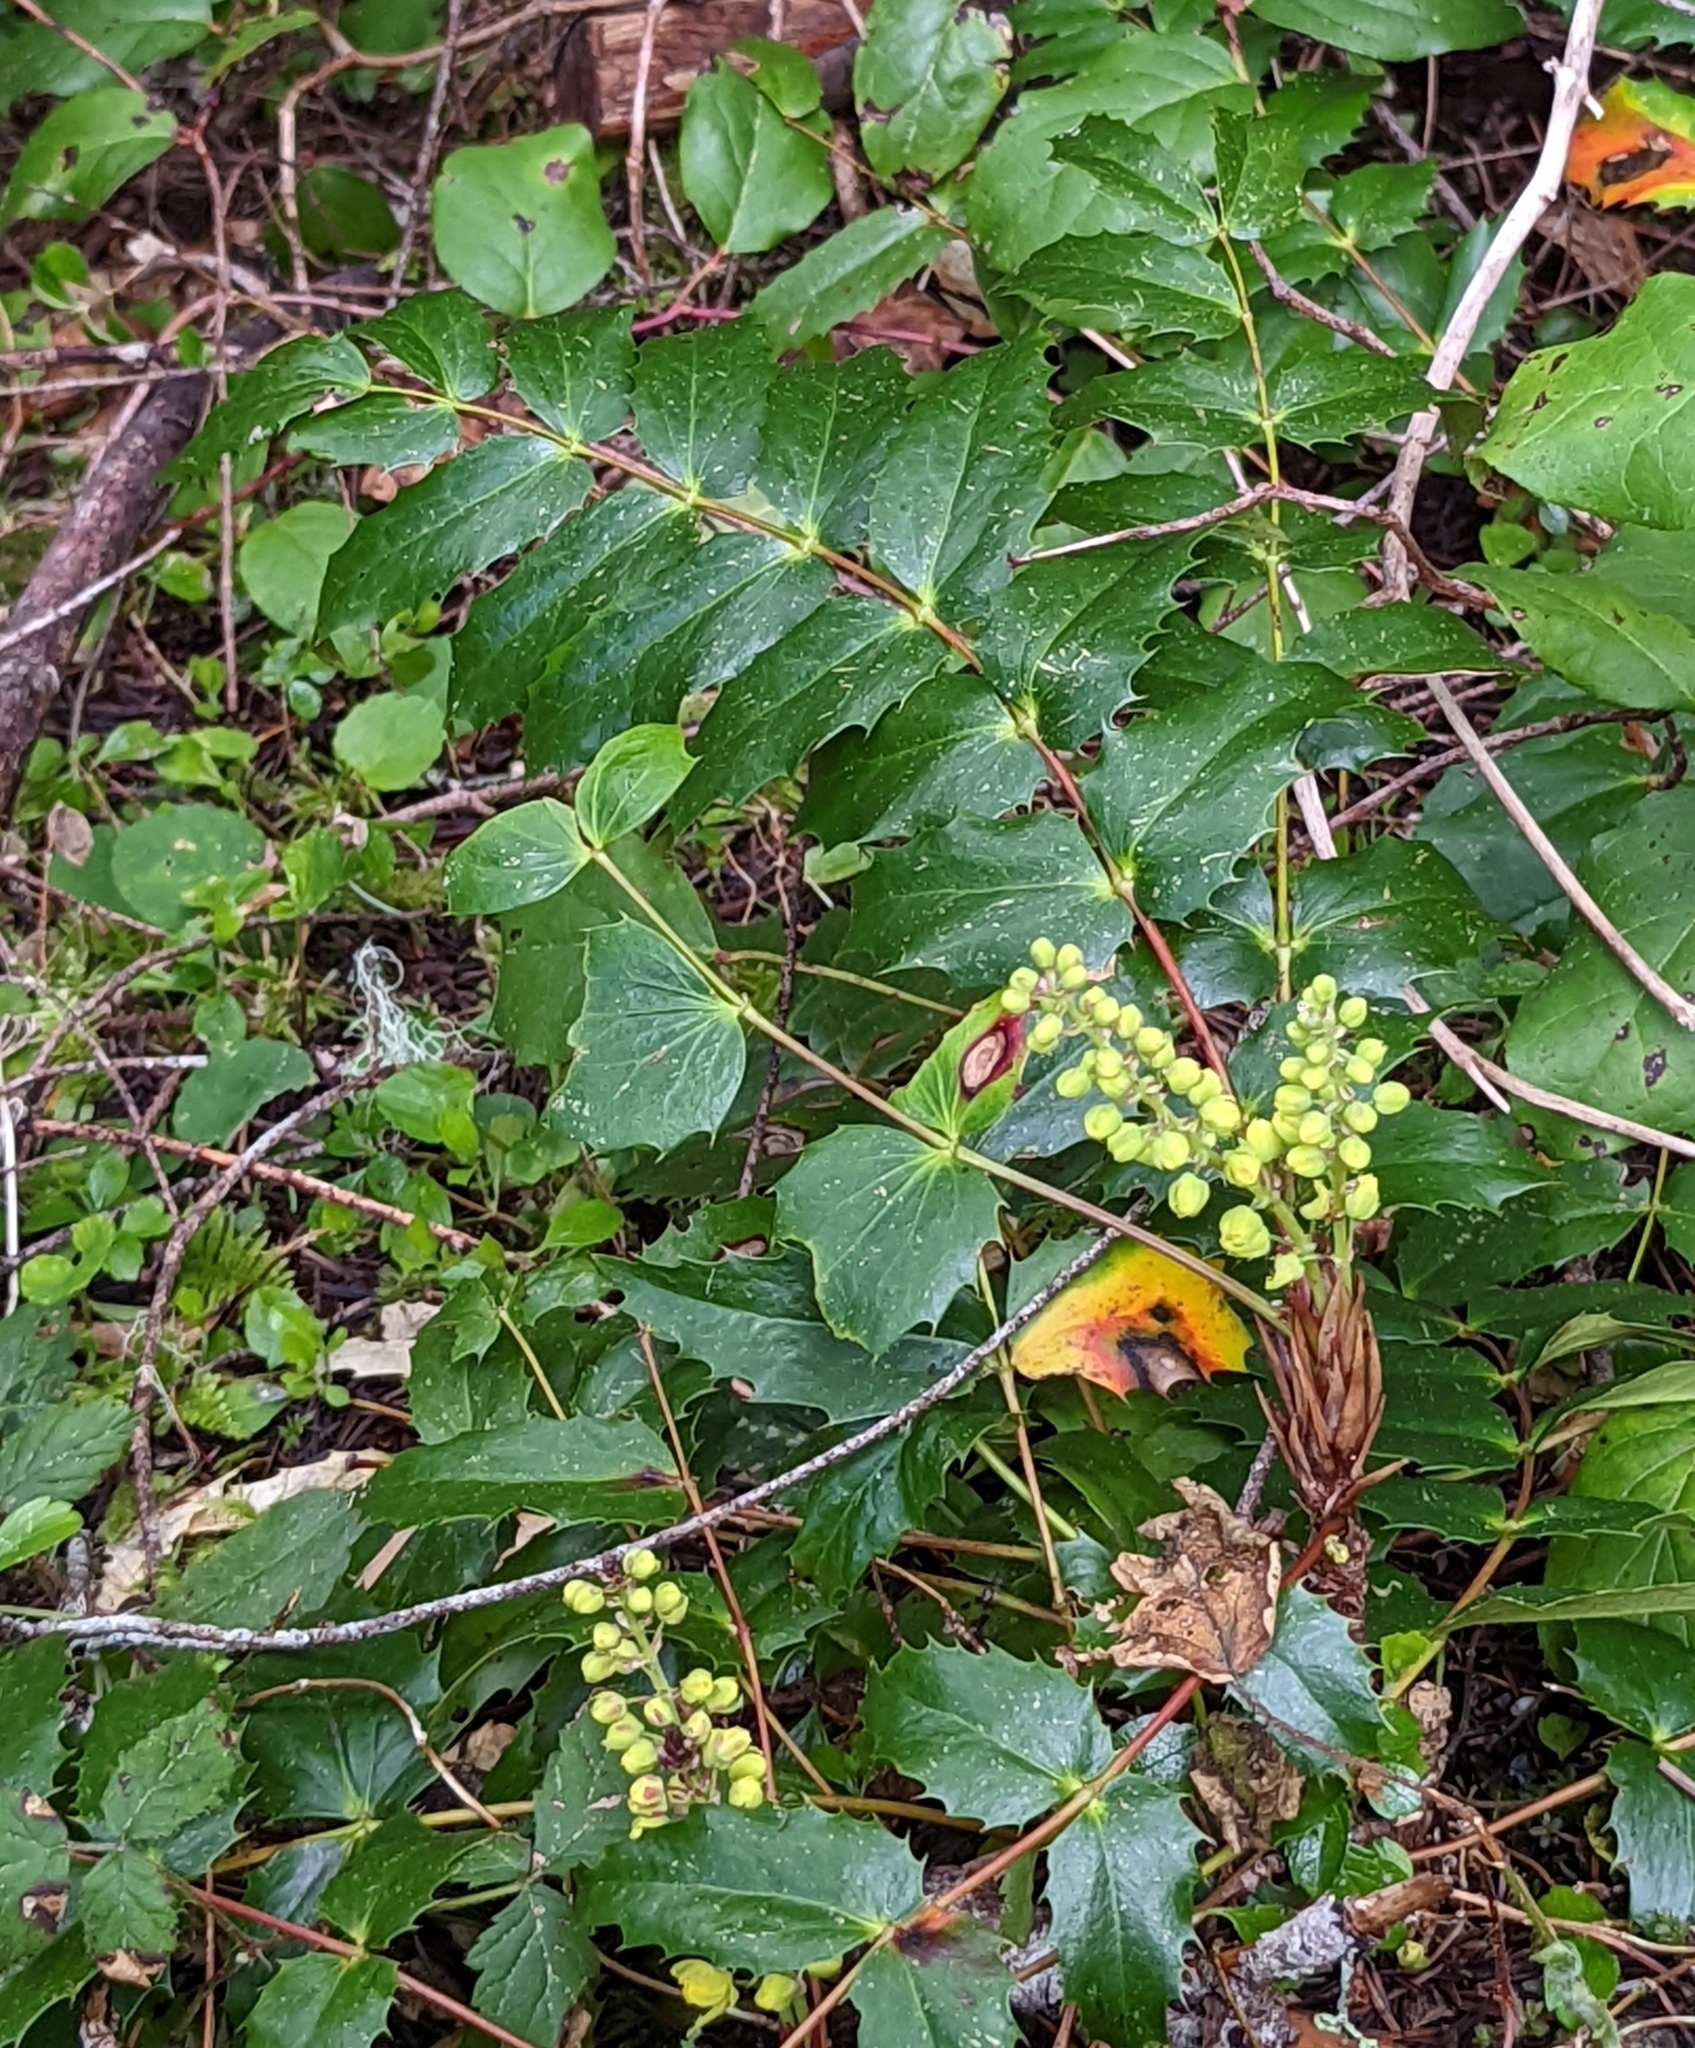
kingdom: Plantae
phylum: Tracheophyta
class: Magnoliopsida
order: Ranunculales
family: Berberidaceae
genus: Mahonia
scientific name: Mahonia nervosa
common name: Cascade oregon-grape
